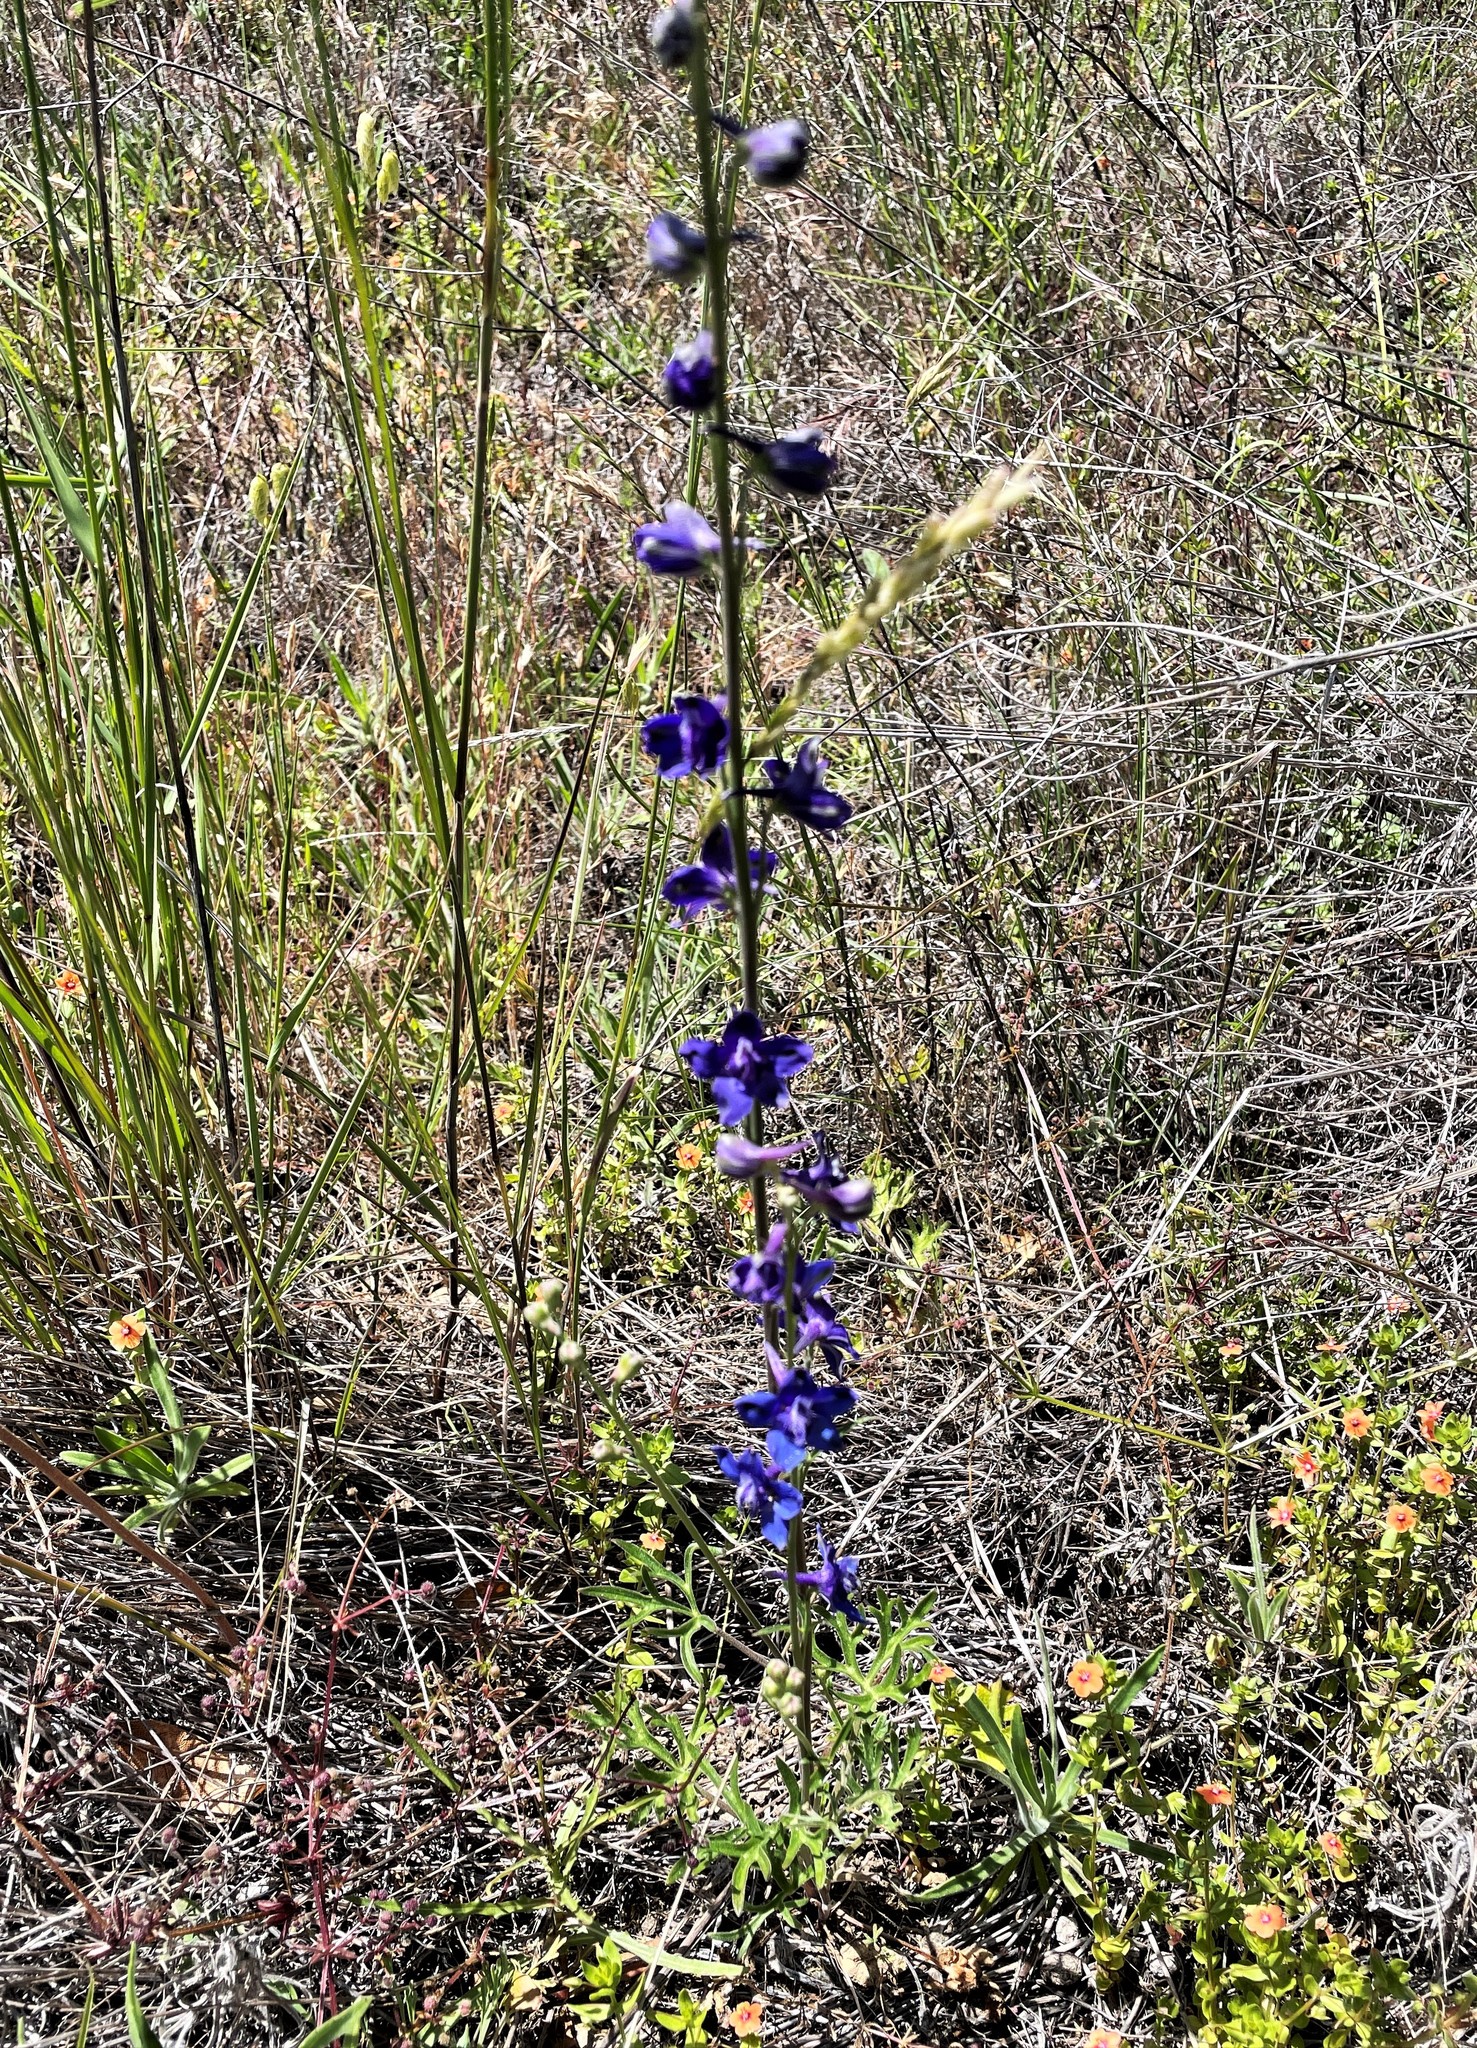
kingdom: Plantae
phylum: Tracheophyta
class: Magnoliopsida
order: Ranunculales
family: Ranunculaceae
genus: Delphinium
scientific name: Delphinium hesperium
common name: Western larkspur
